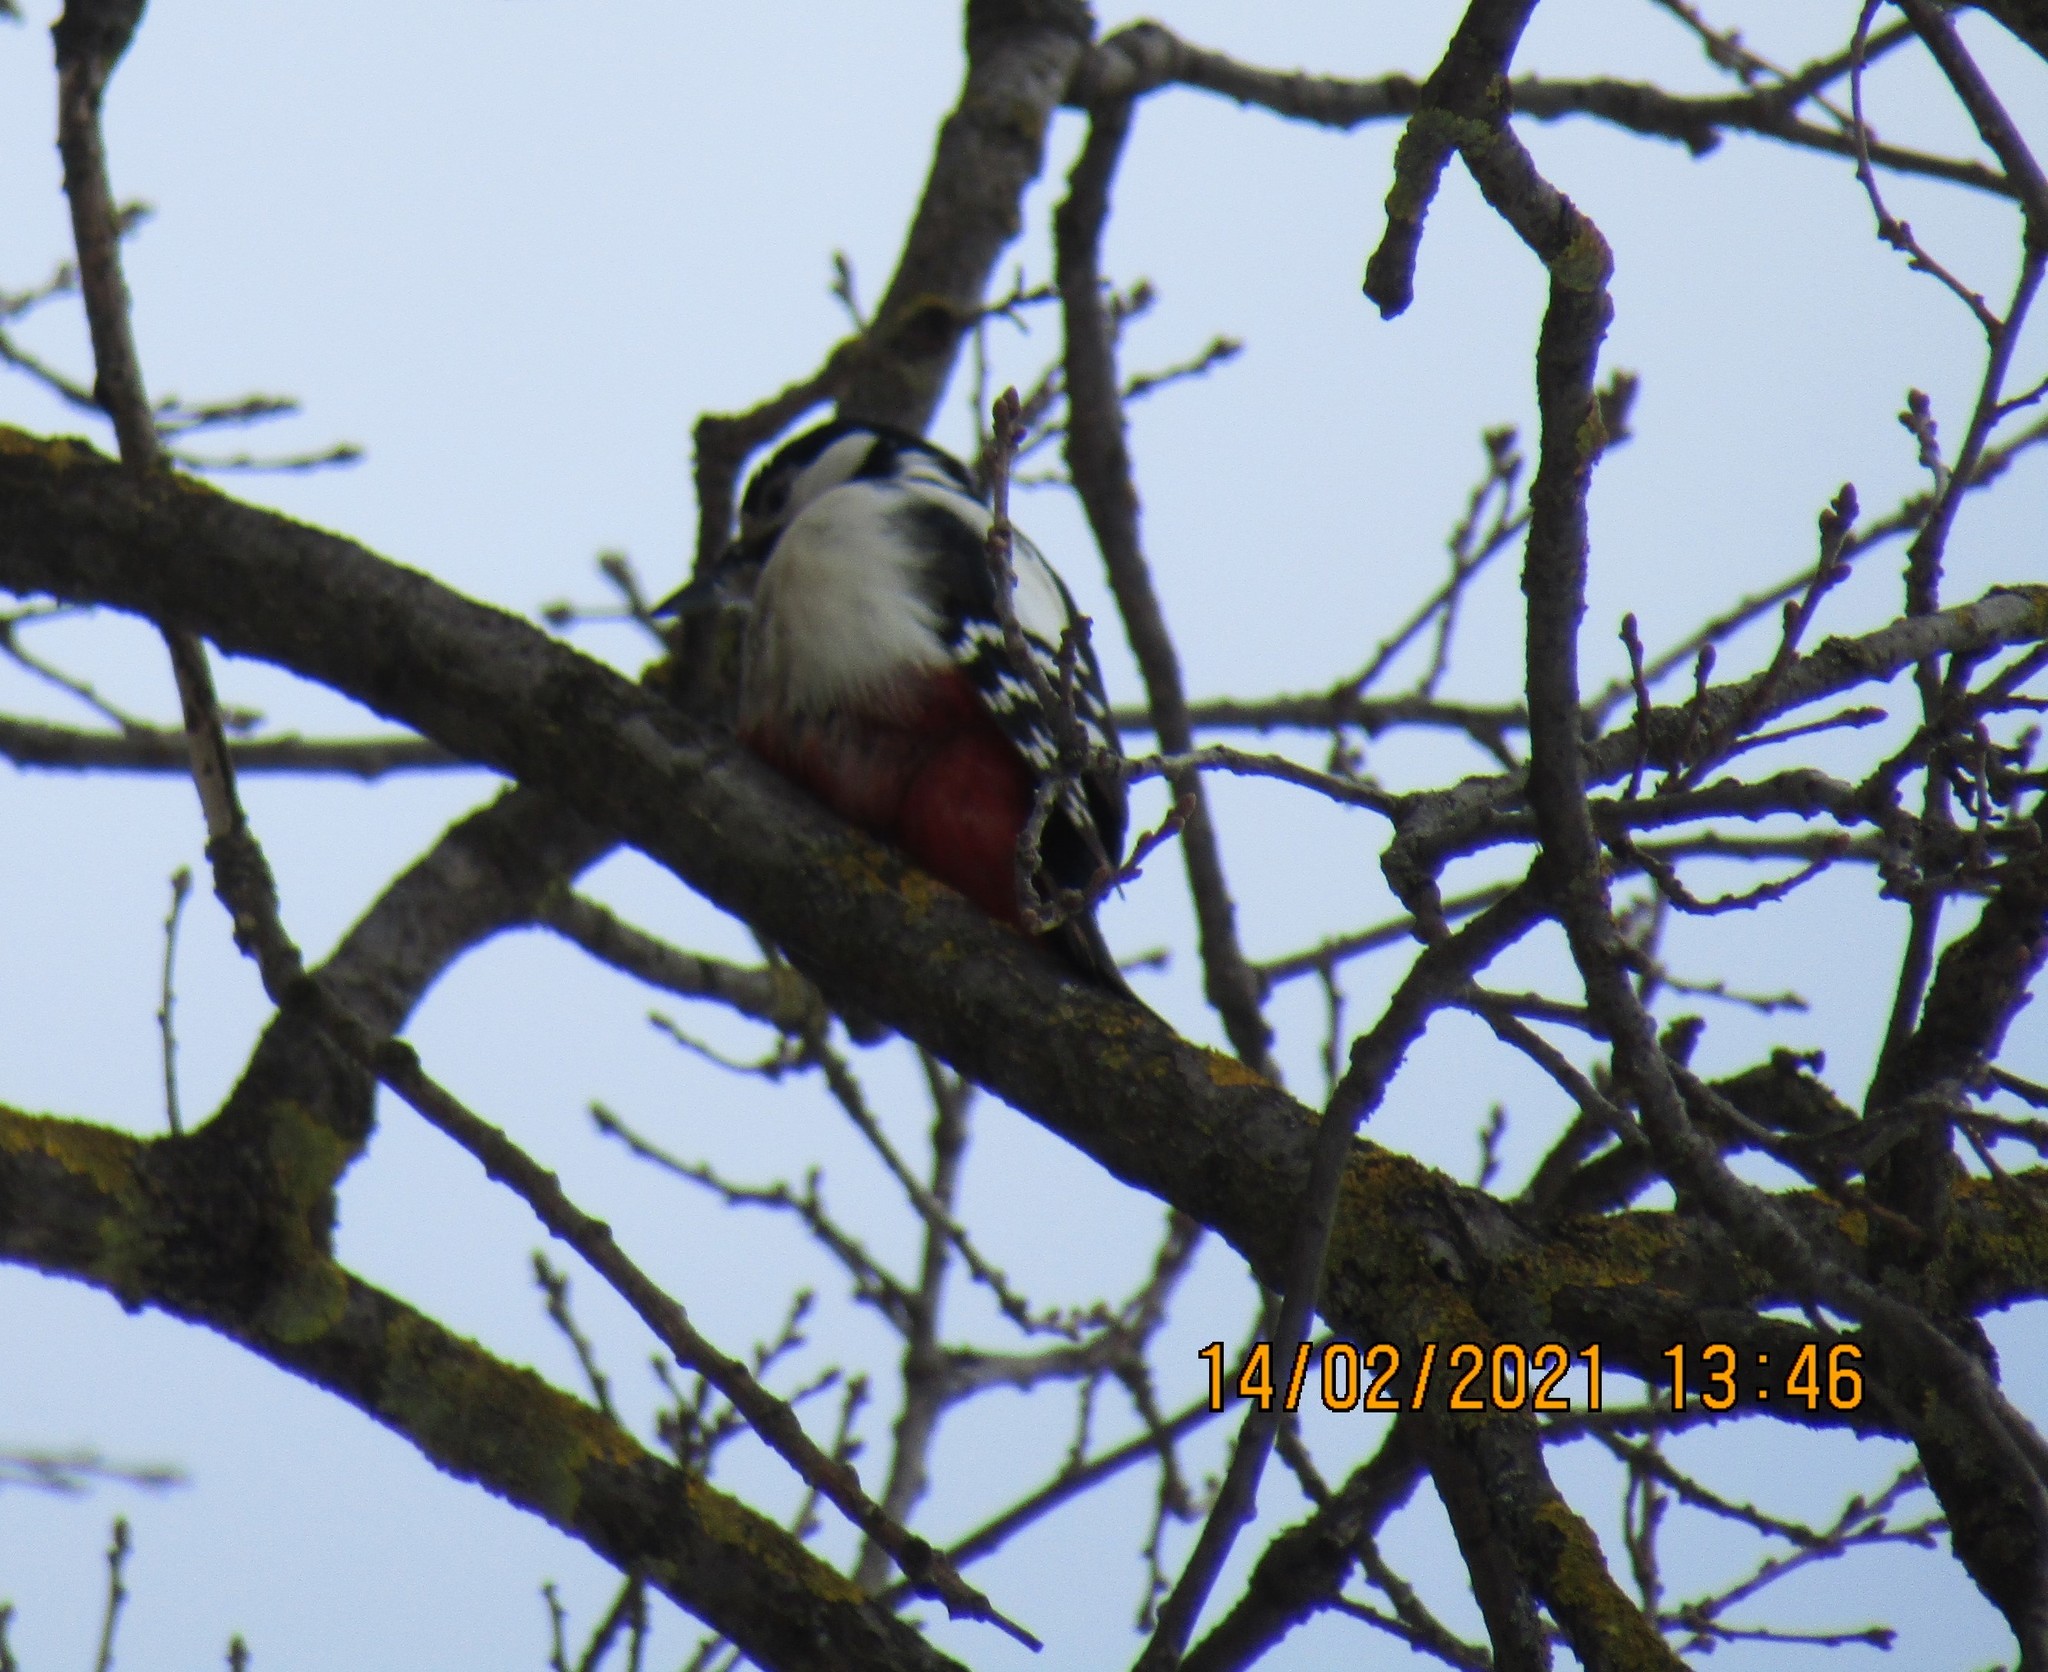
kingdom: Animalia
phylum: Chordata
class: Aves
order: Piciformes
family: Picidae
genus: Dendrocopos
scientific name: Dendrocopos major
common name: Great spotted woodpecker
